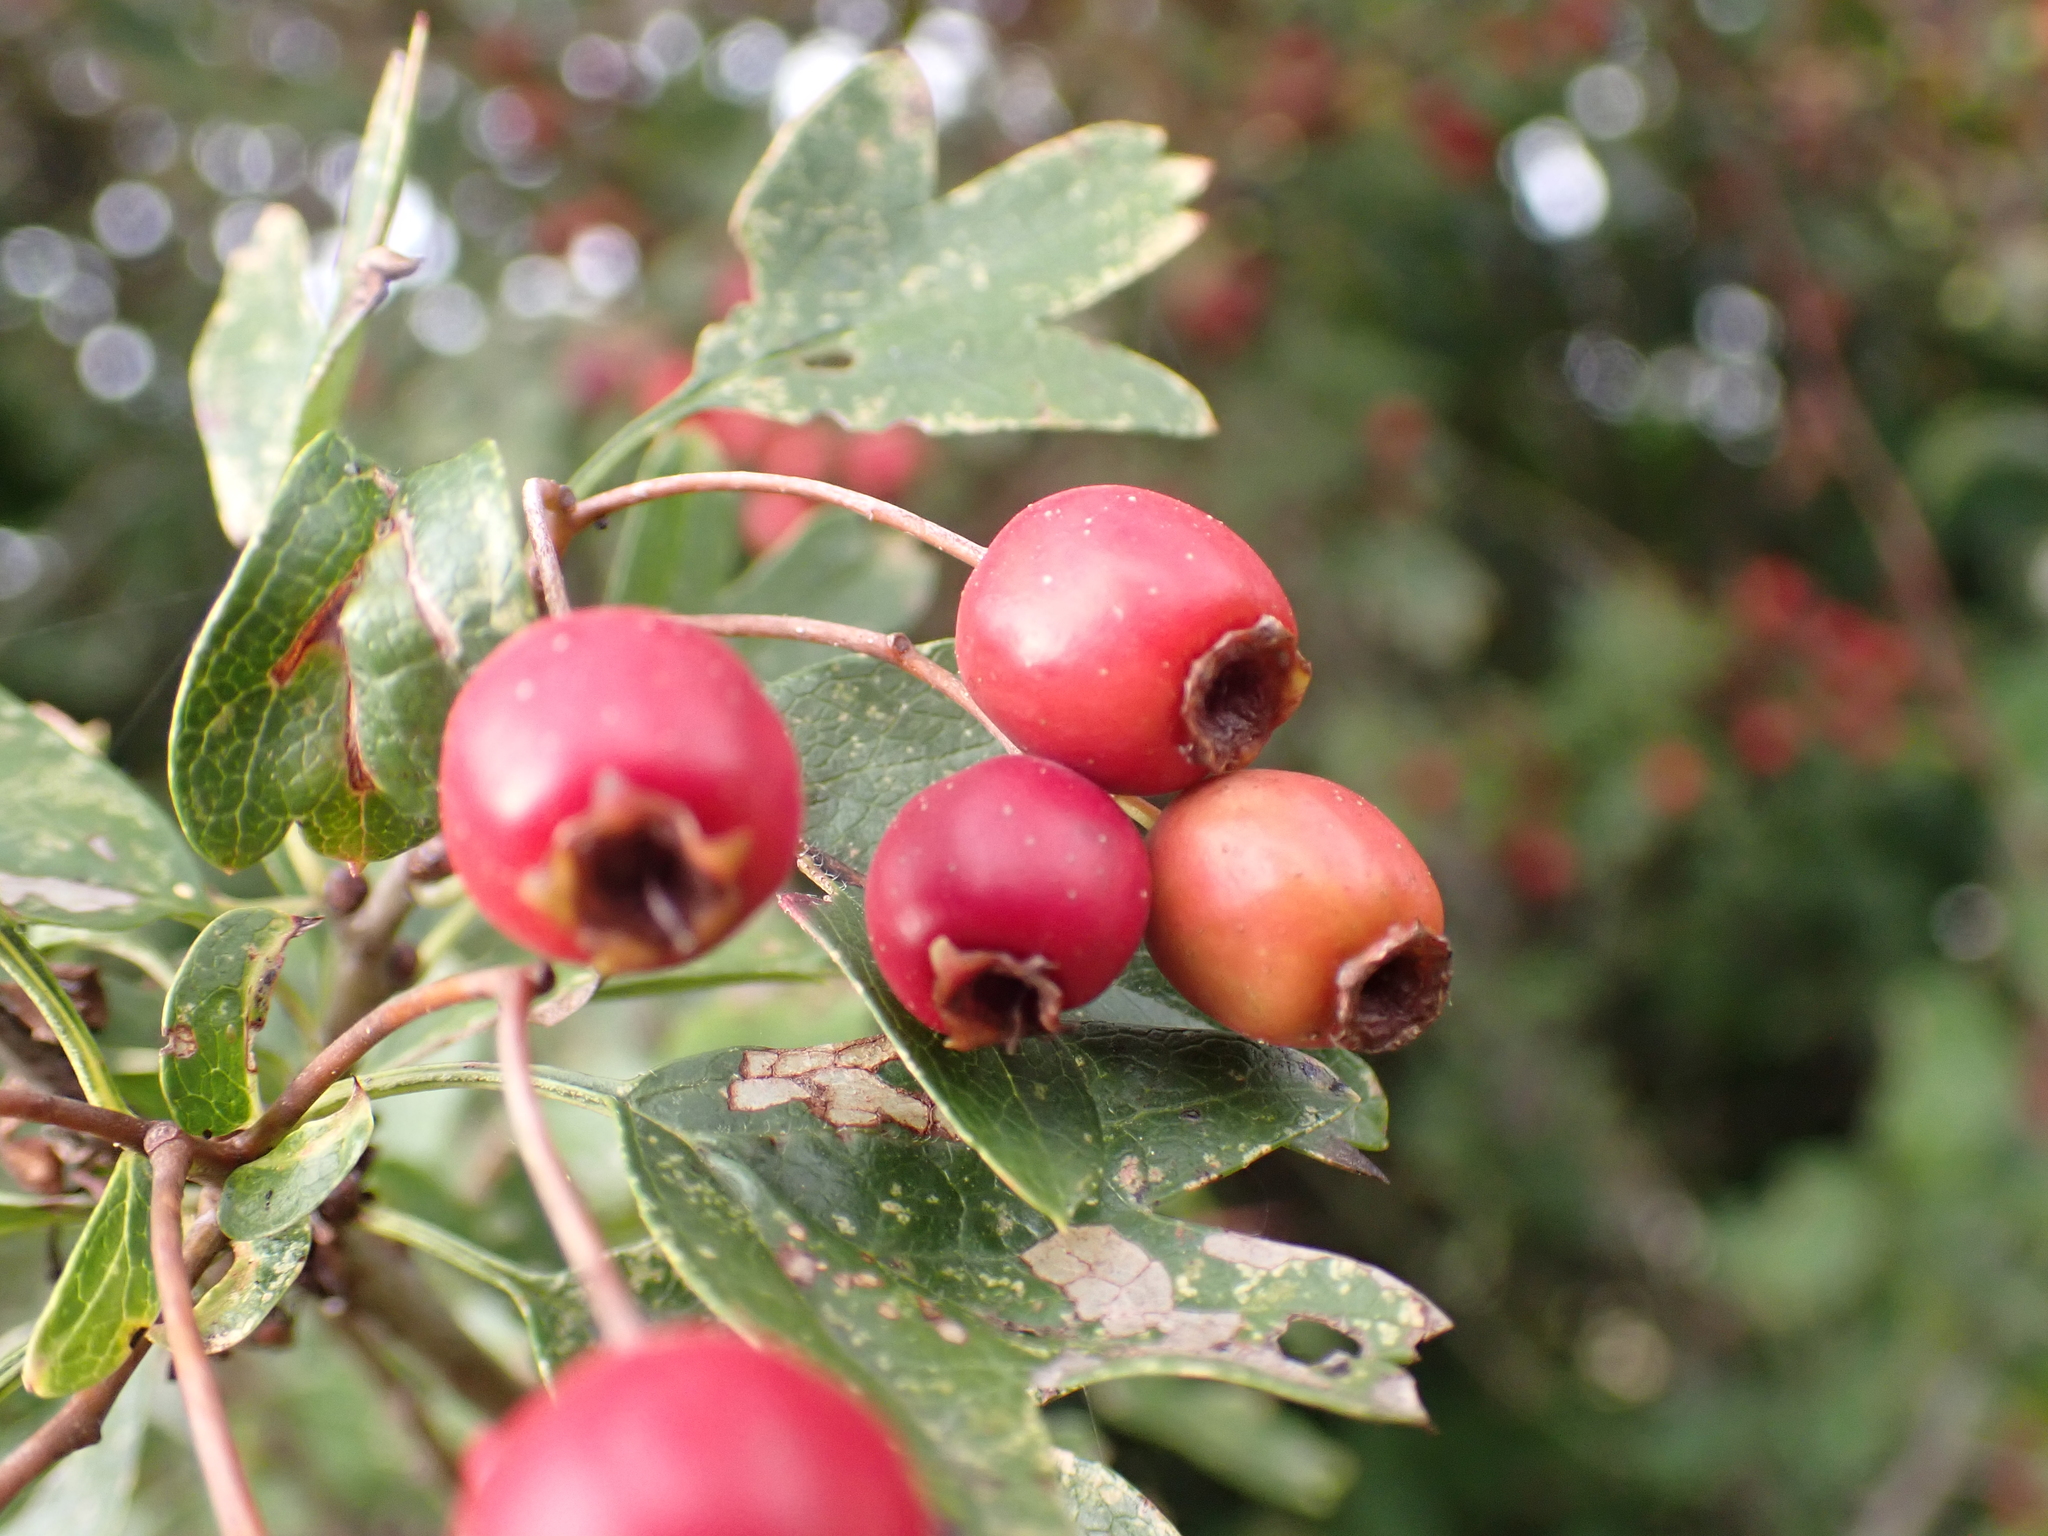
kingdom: Plantae
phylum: Tracheophyta
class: Magnoliopsida
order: Rosales
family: Rosaceae
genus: Crataegus
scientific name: Crataegus monogyna
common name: Hawthorn
